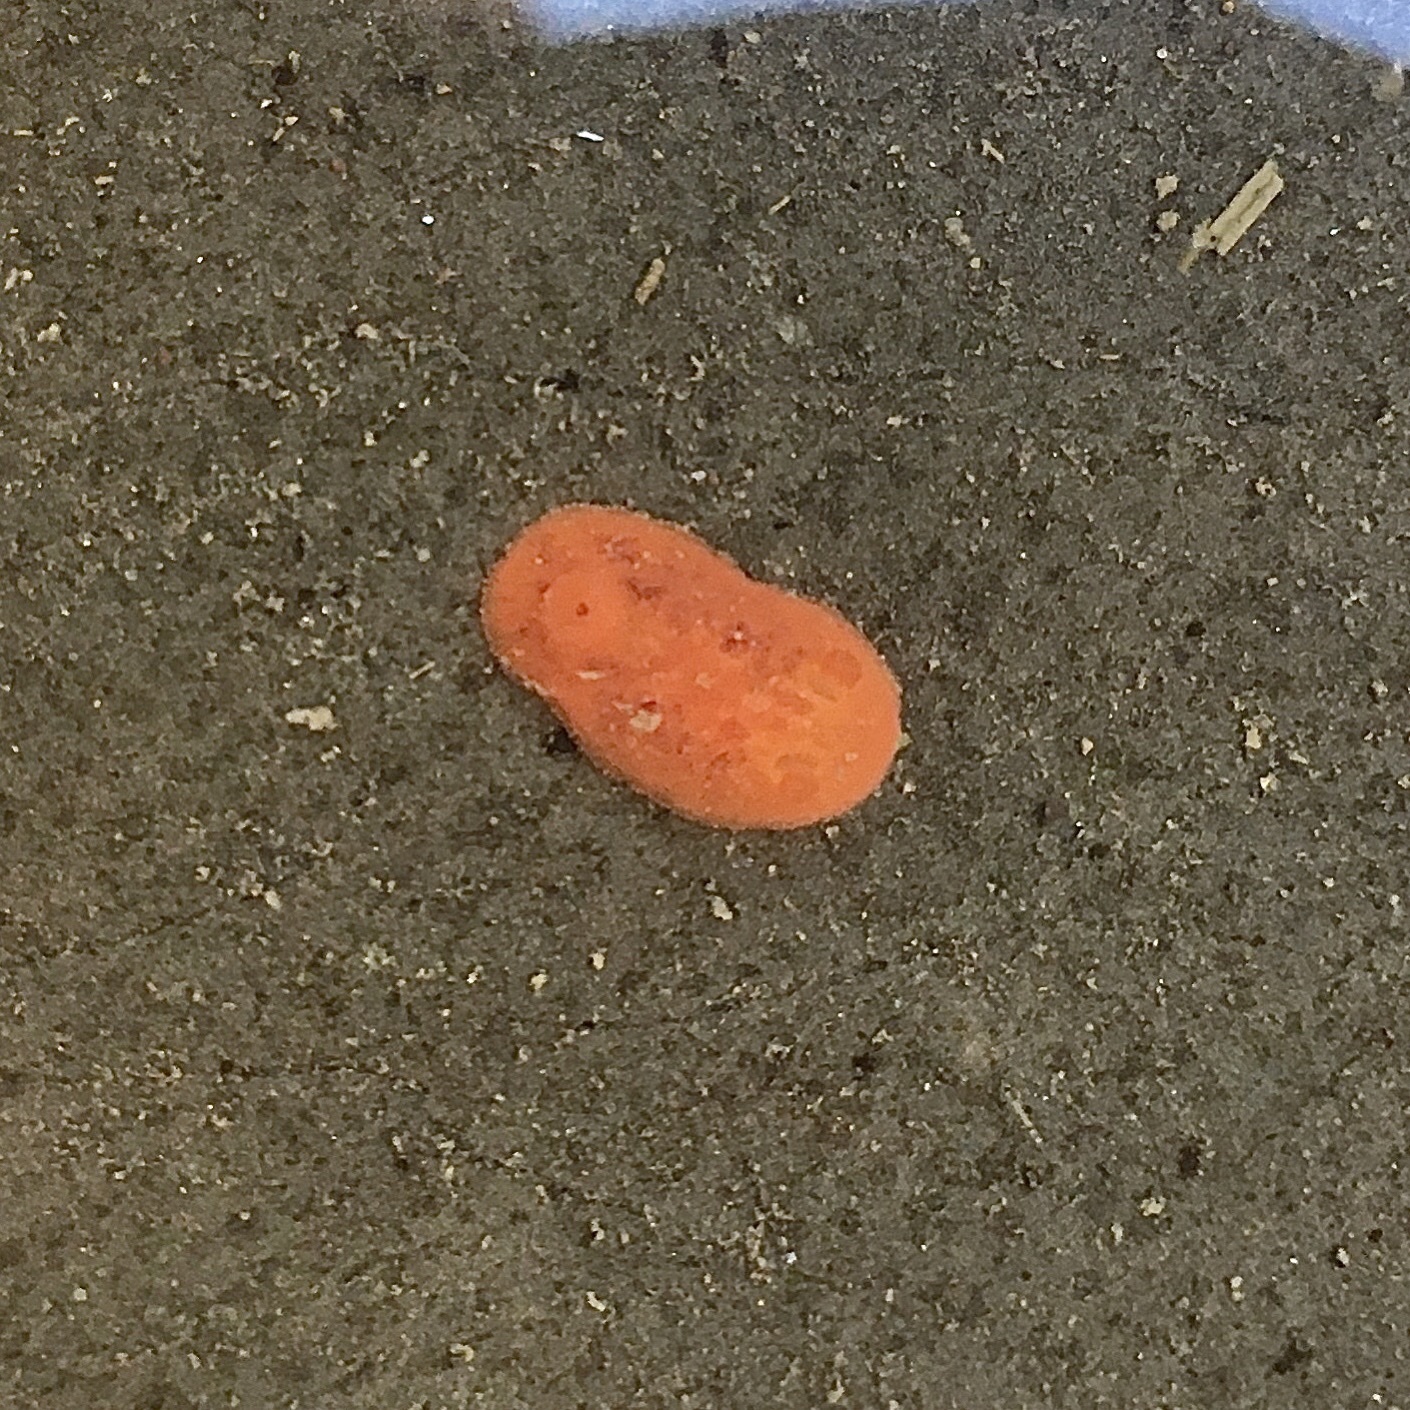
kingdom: Animalia
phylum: Mollusca
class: Gastropoda
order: Nudibranchia
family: Discodorididae
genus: Rostanga
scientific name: Rostanga pulchra
